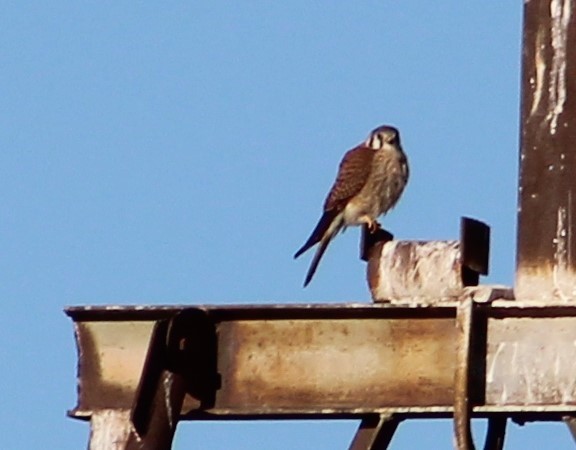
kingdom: Animalia
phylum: Chordata
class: Aves
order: Falconiformes
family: Falconidae
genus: Falco
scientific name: Falco sparverius
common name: American kestrel
